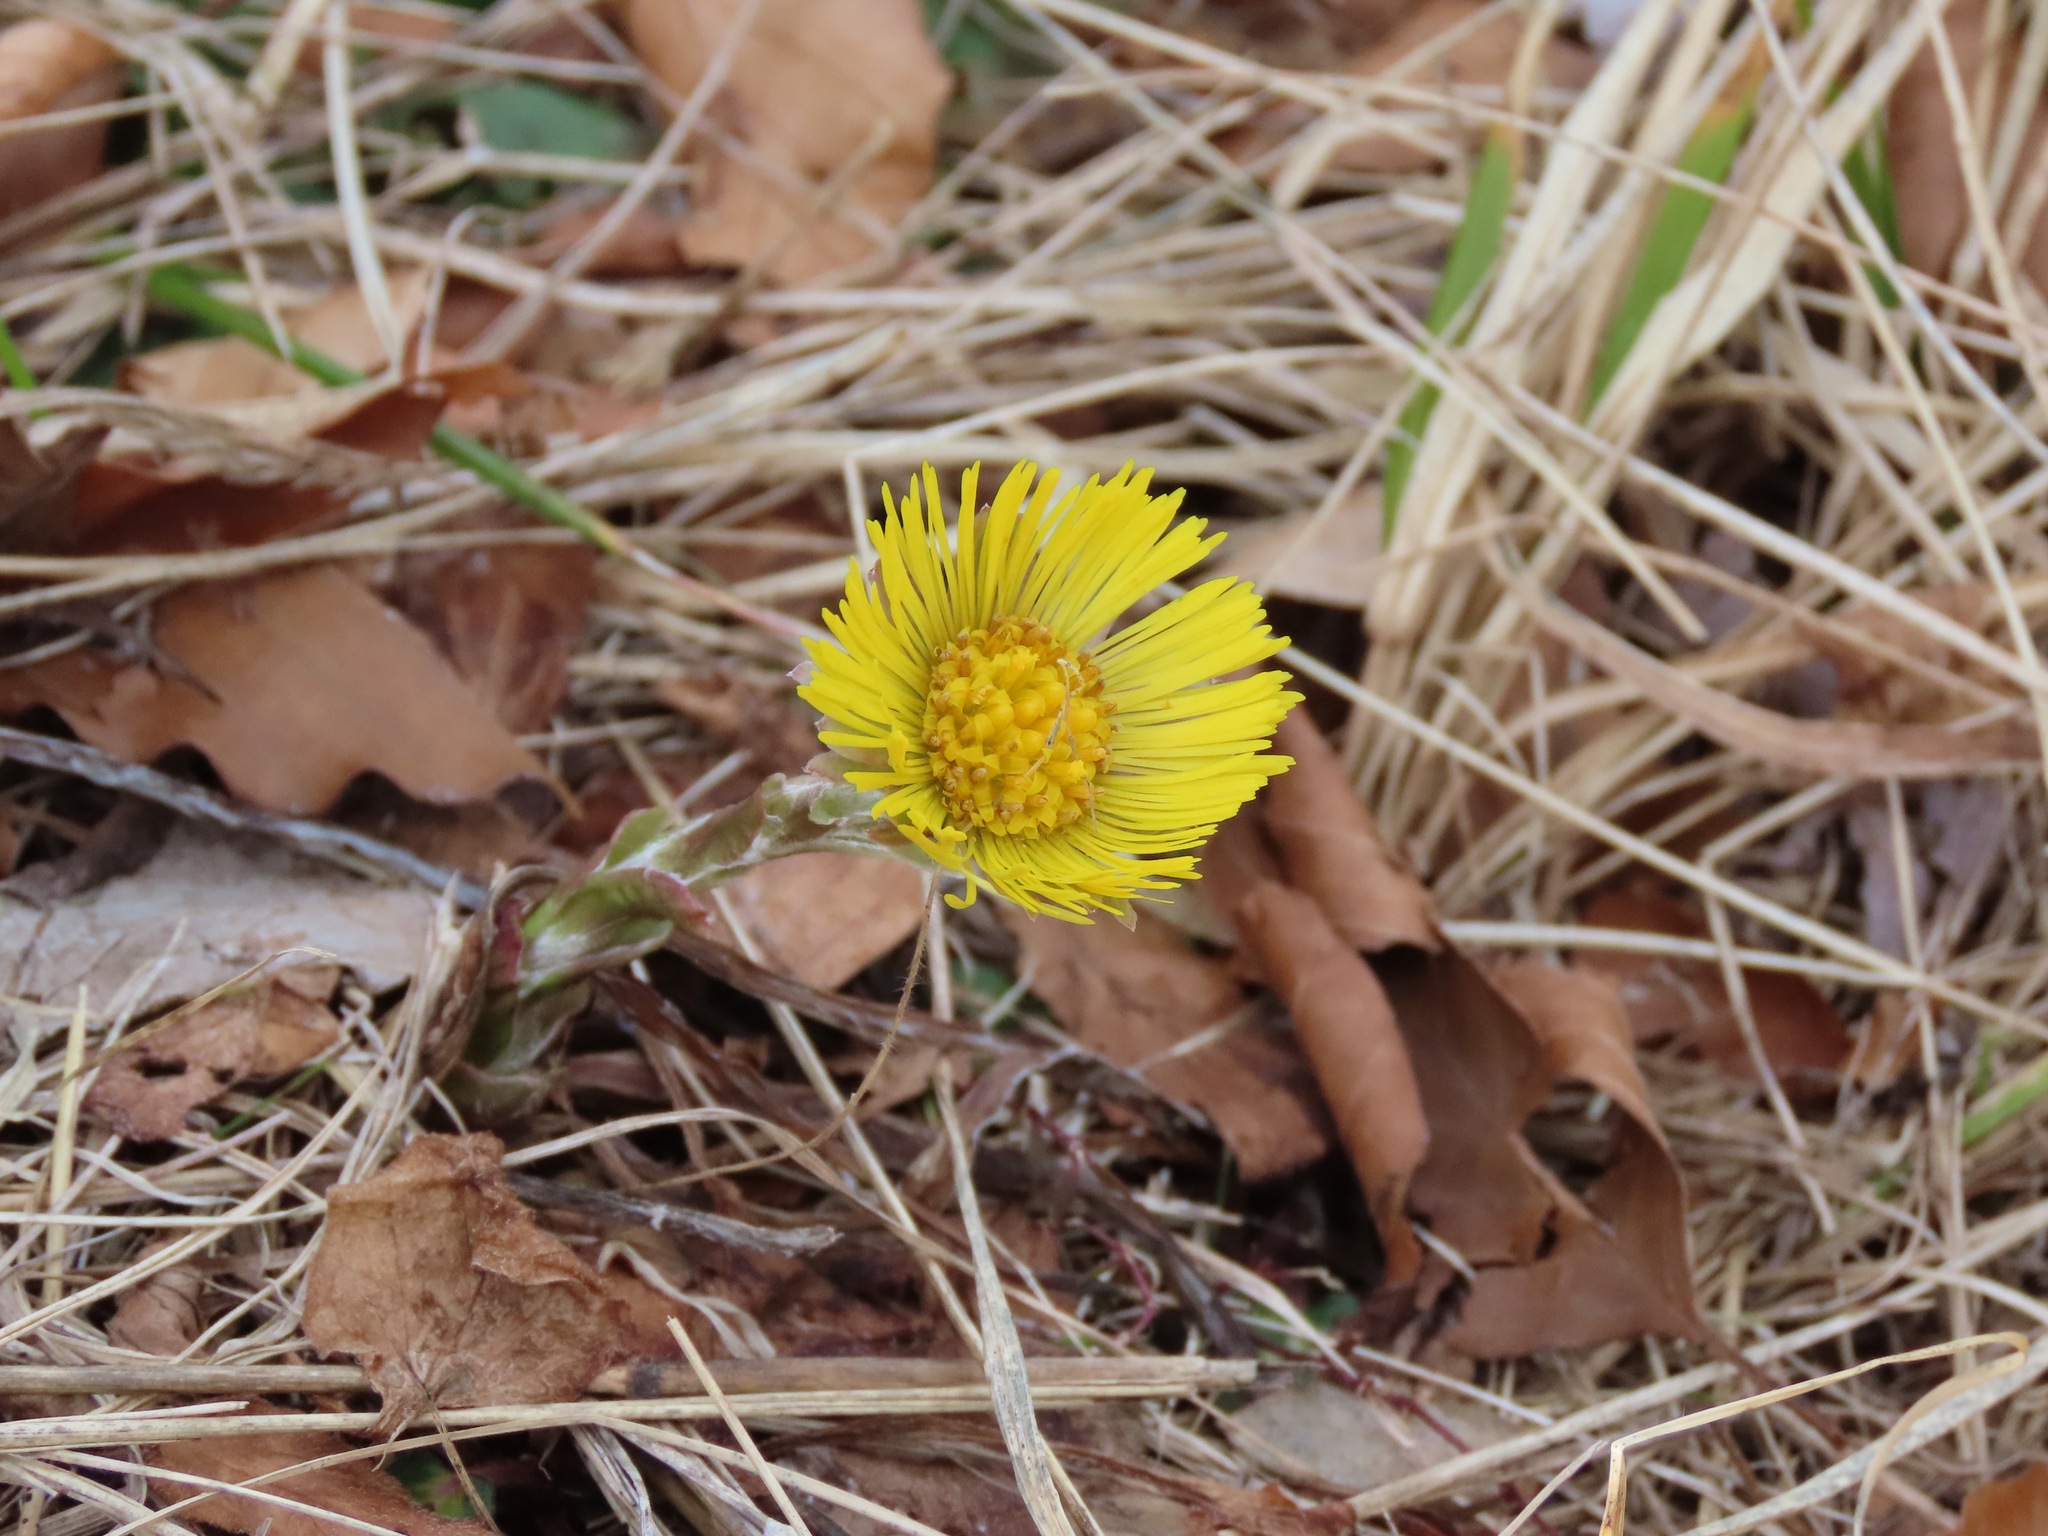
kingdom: Plantae
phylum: Tracheophyta
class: Magnoliopsida
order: Asterales
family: Asteraceae
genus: Tussilago
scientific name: Tussilago farfara
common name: Coltsfoot
